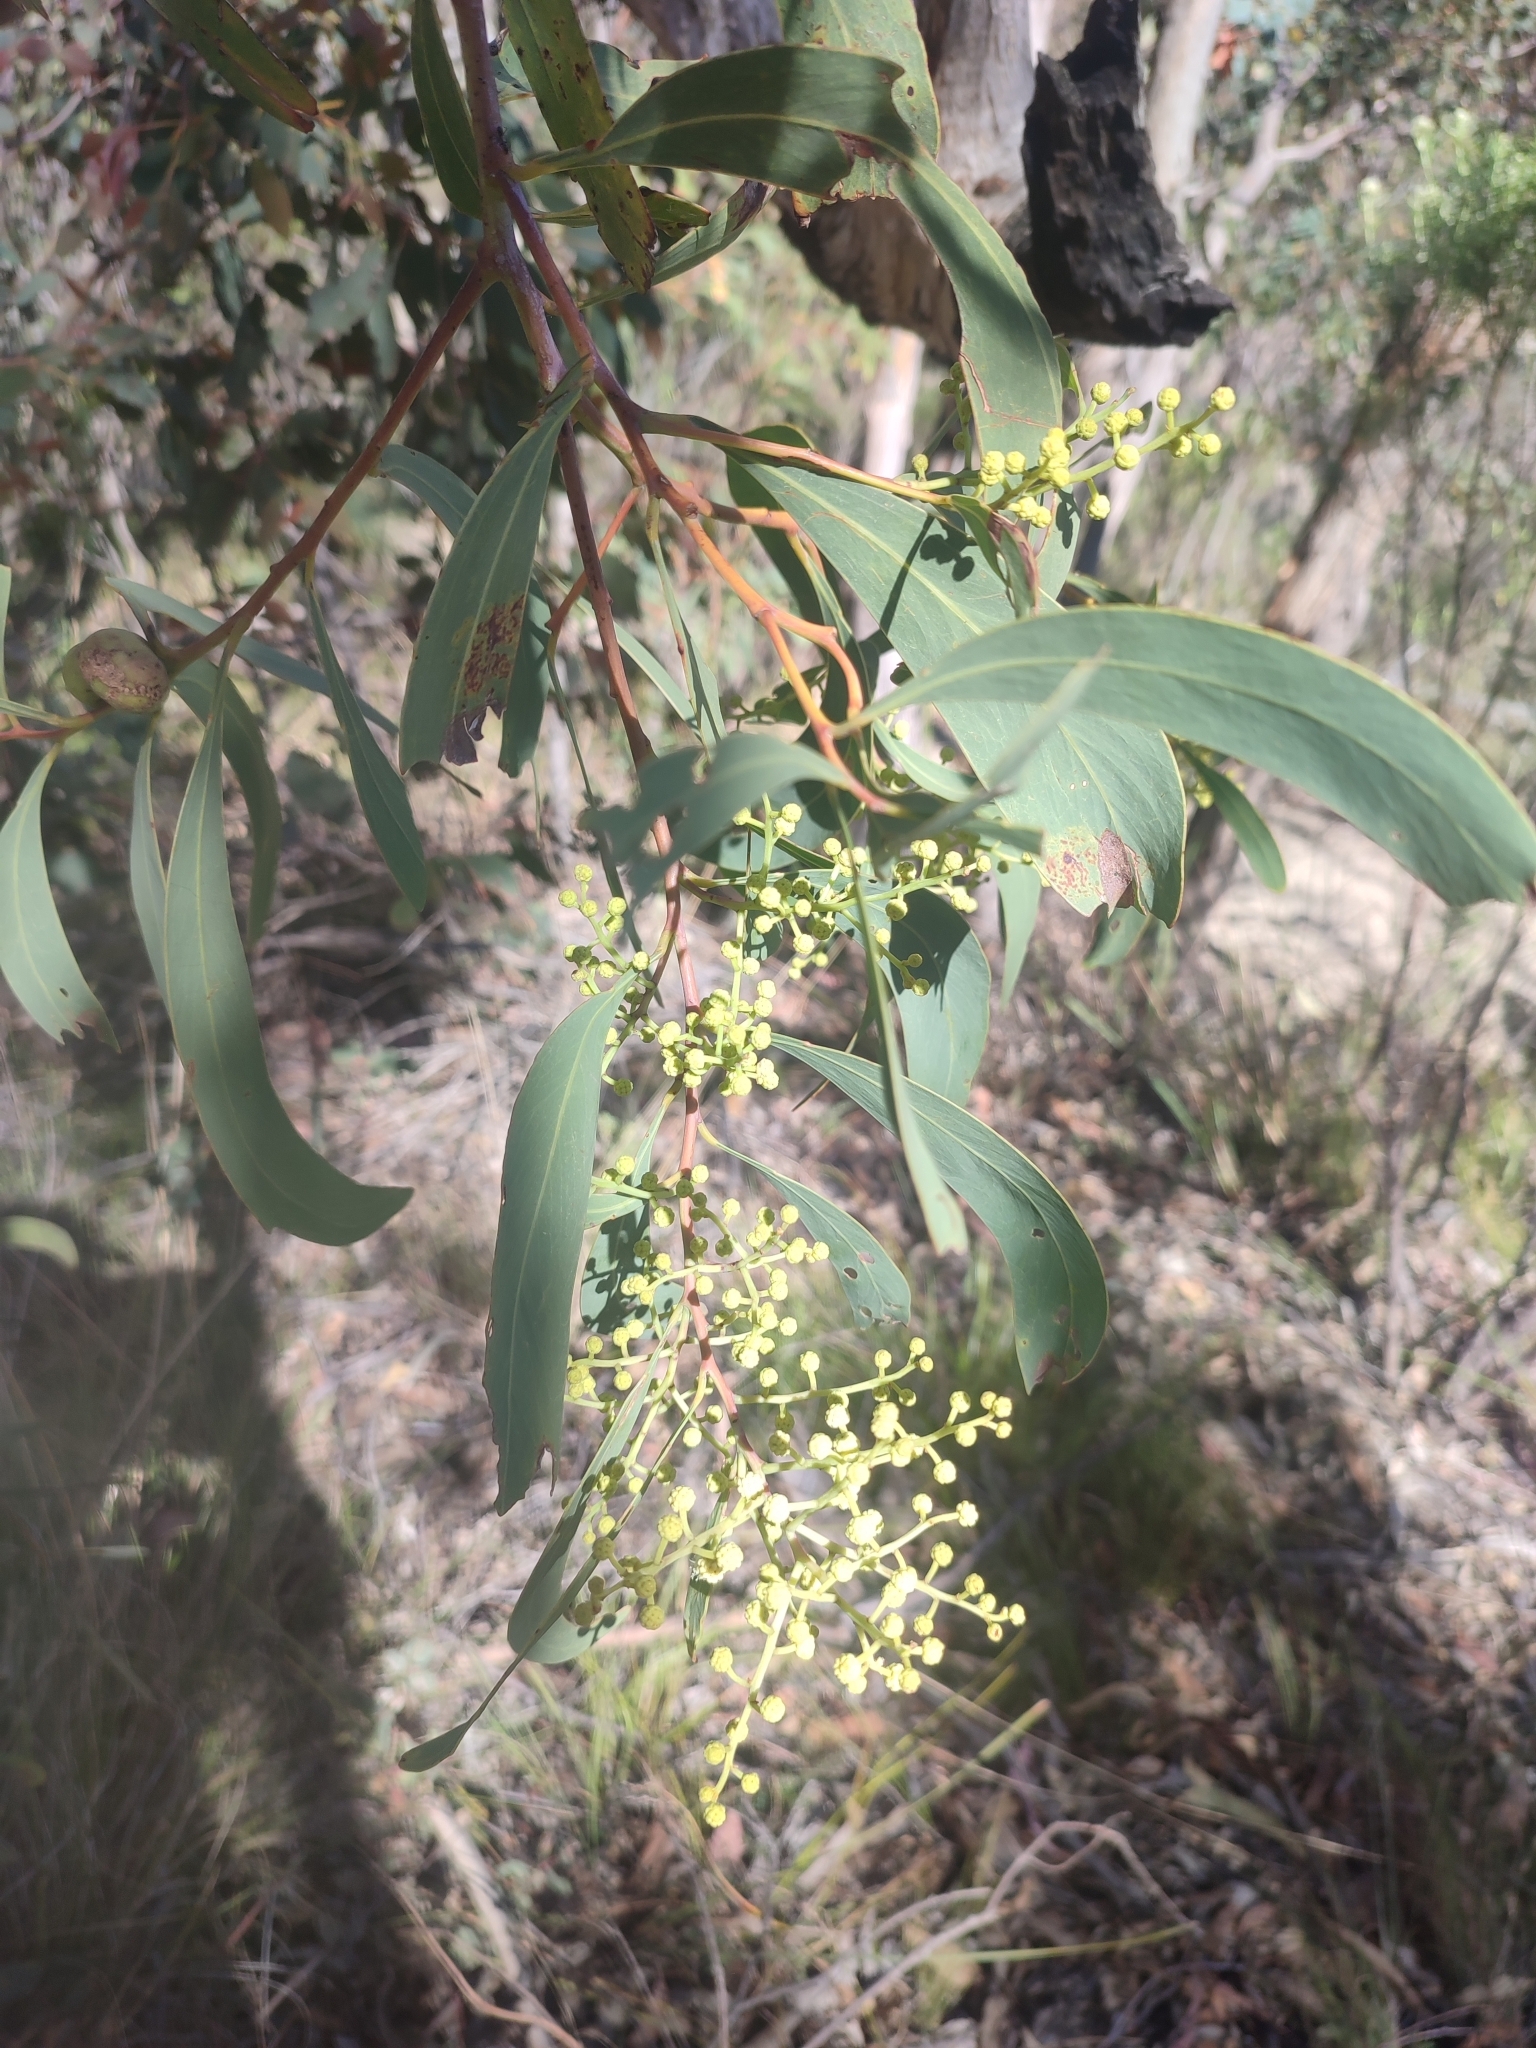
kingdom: Plantae
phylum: Tracheophyta
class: Magnoliopsida
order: Fabales
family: Fabaceae
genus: Acacia
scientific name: Acacia falciformis
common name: Tanning wattle
